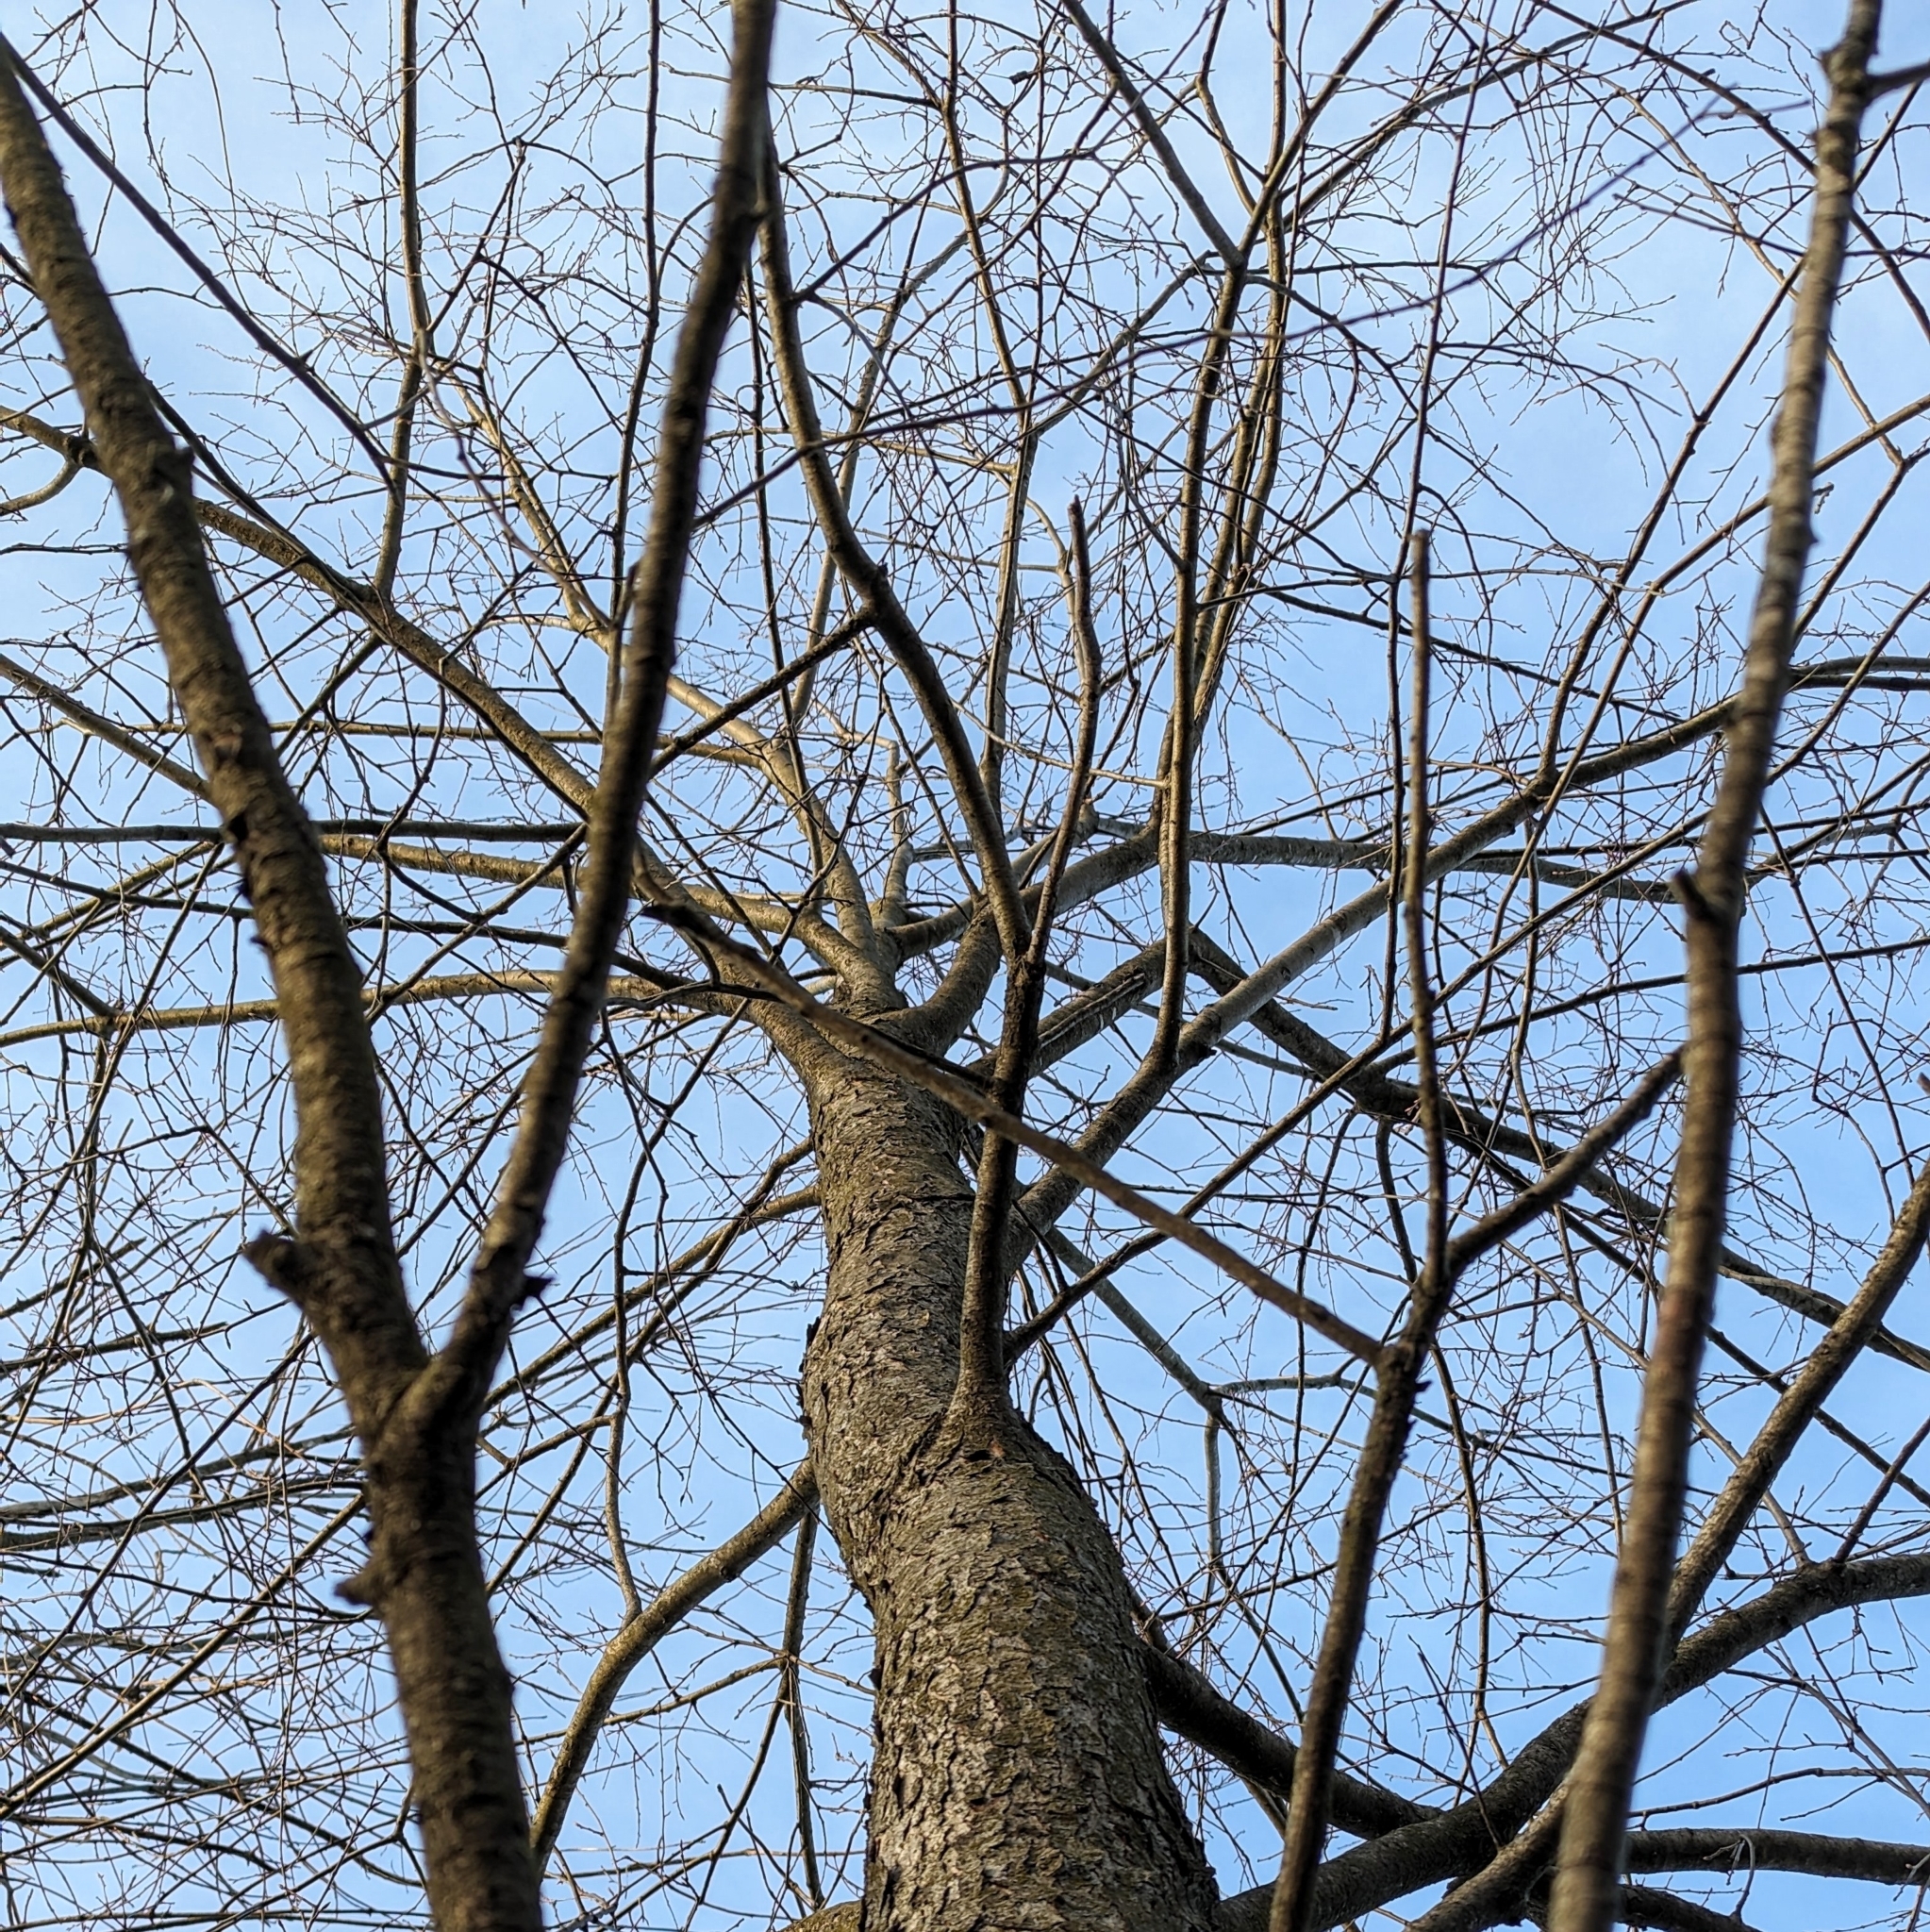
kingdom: Plantae
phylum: Tracheophyta
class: Magnoliopsida
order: Rosales
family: Rosaceae
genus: Prunus
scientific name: Prunus serotina
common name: Black cherry
